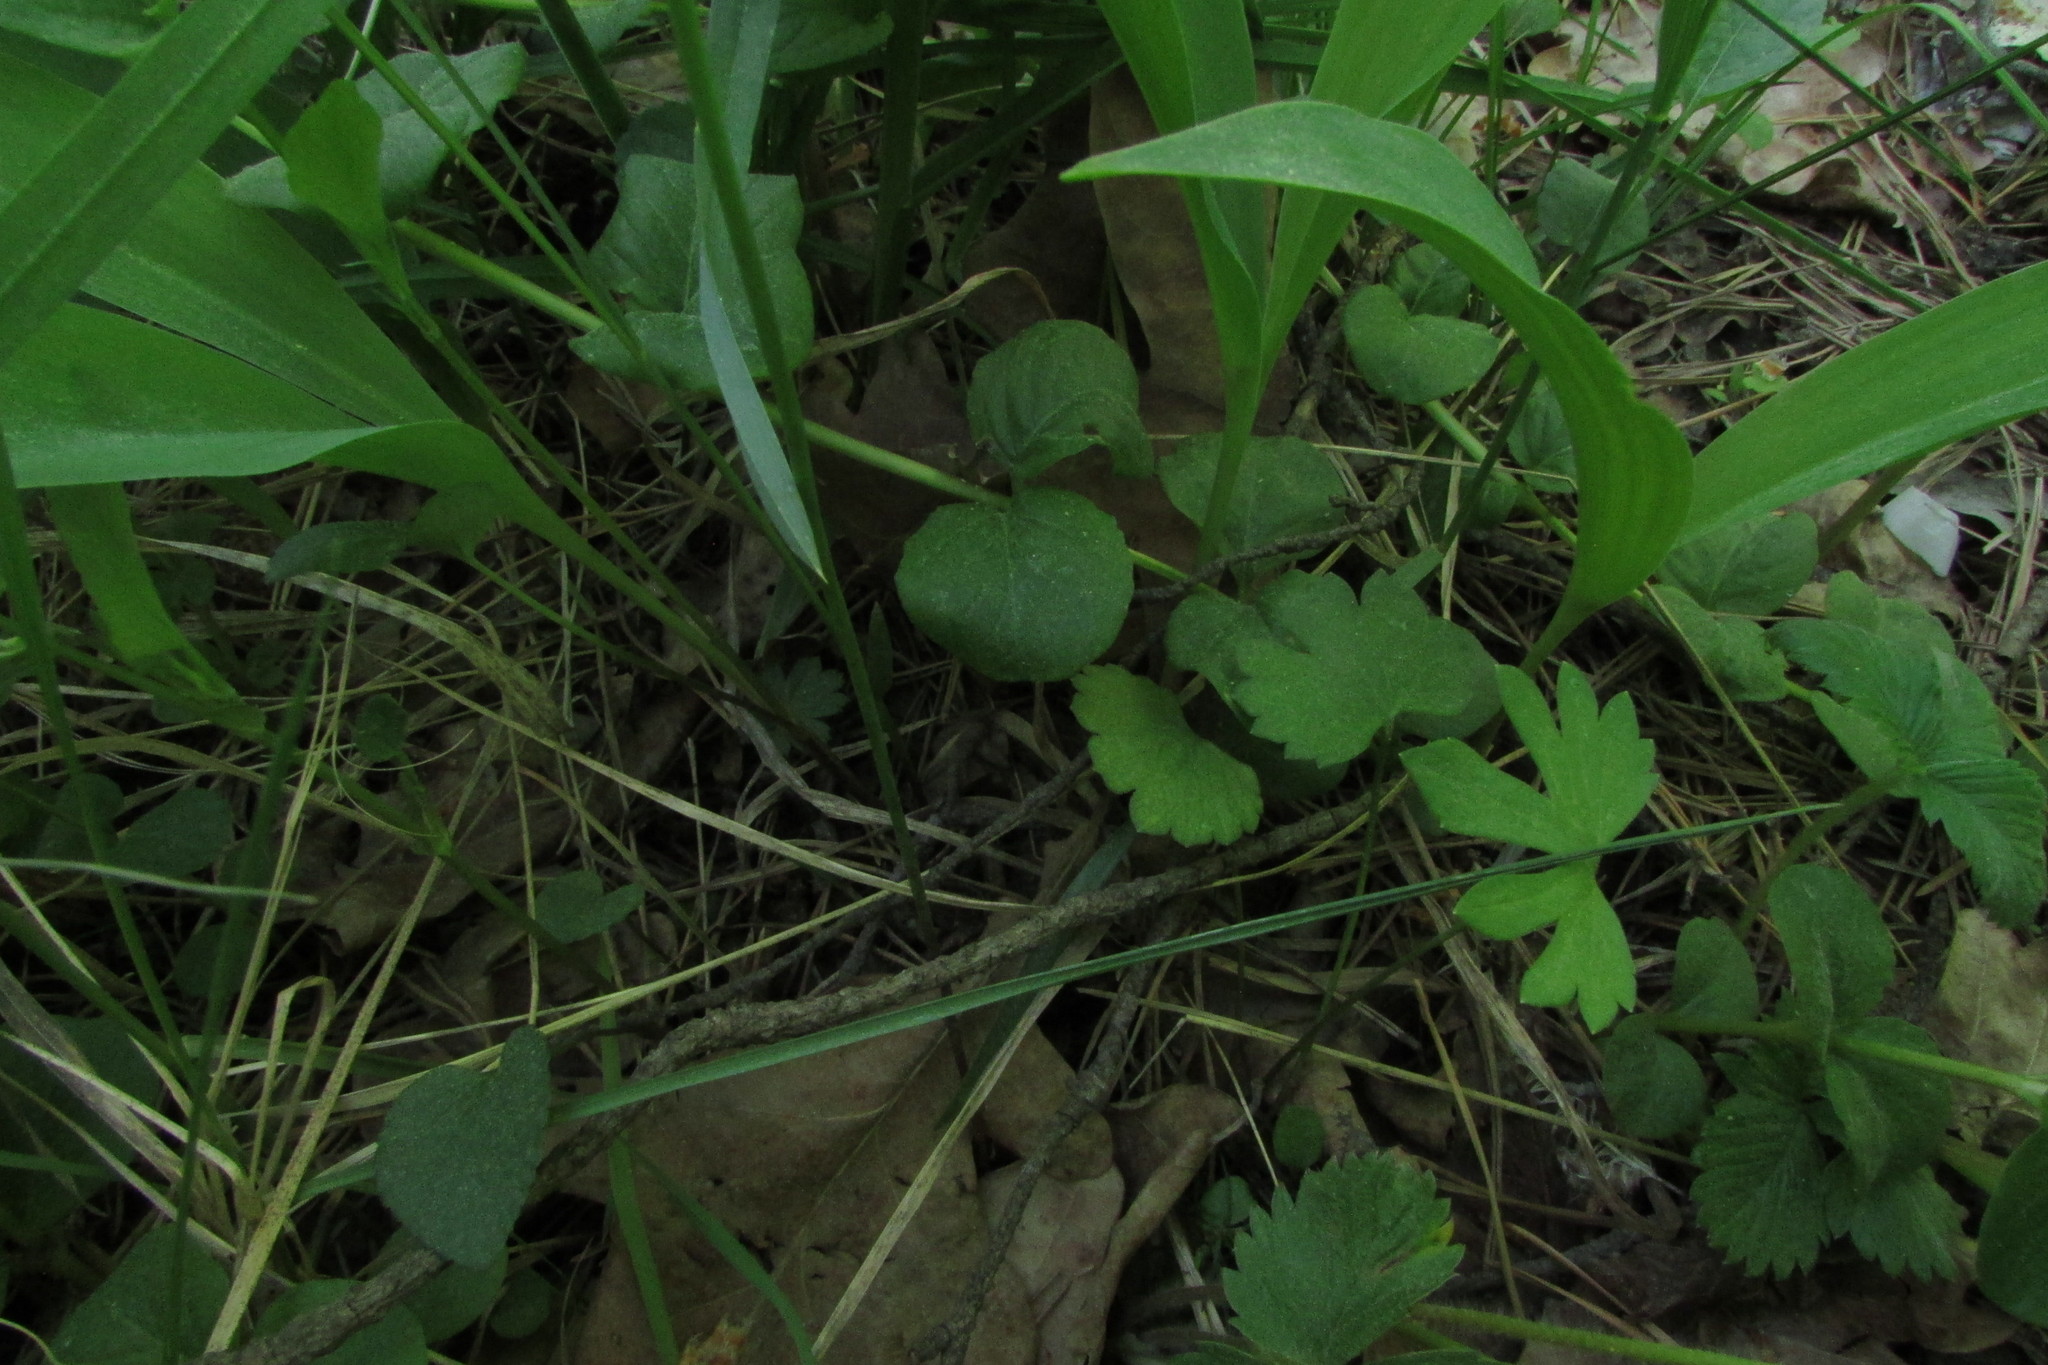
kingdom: Plantae
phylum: Tracheophyta
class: Magnoliopsida
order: Ranunculales
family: Ranunculaceae
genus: Ranunculus
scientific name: Ranunculus auricomus
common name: Goldilocks buttercup
